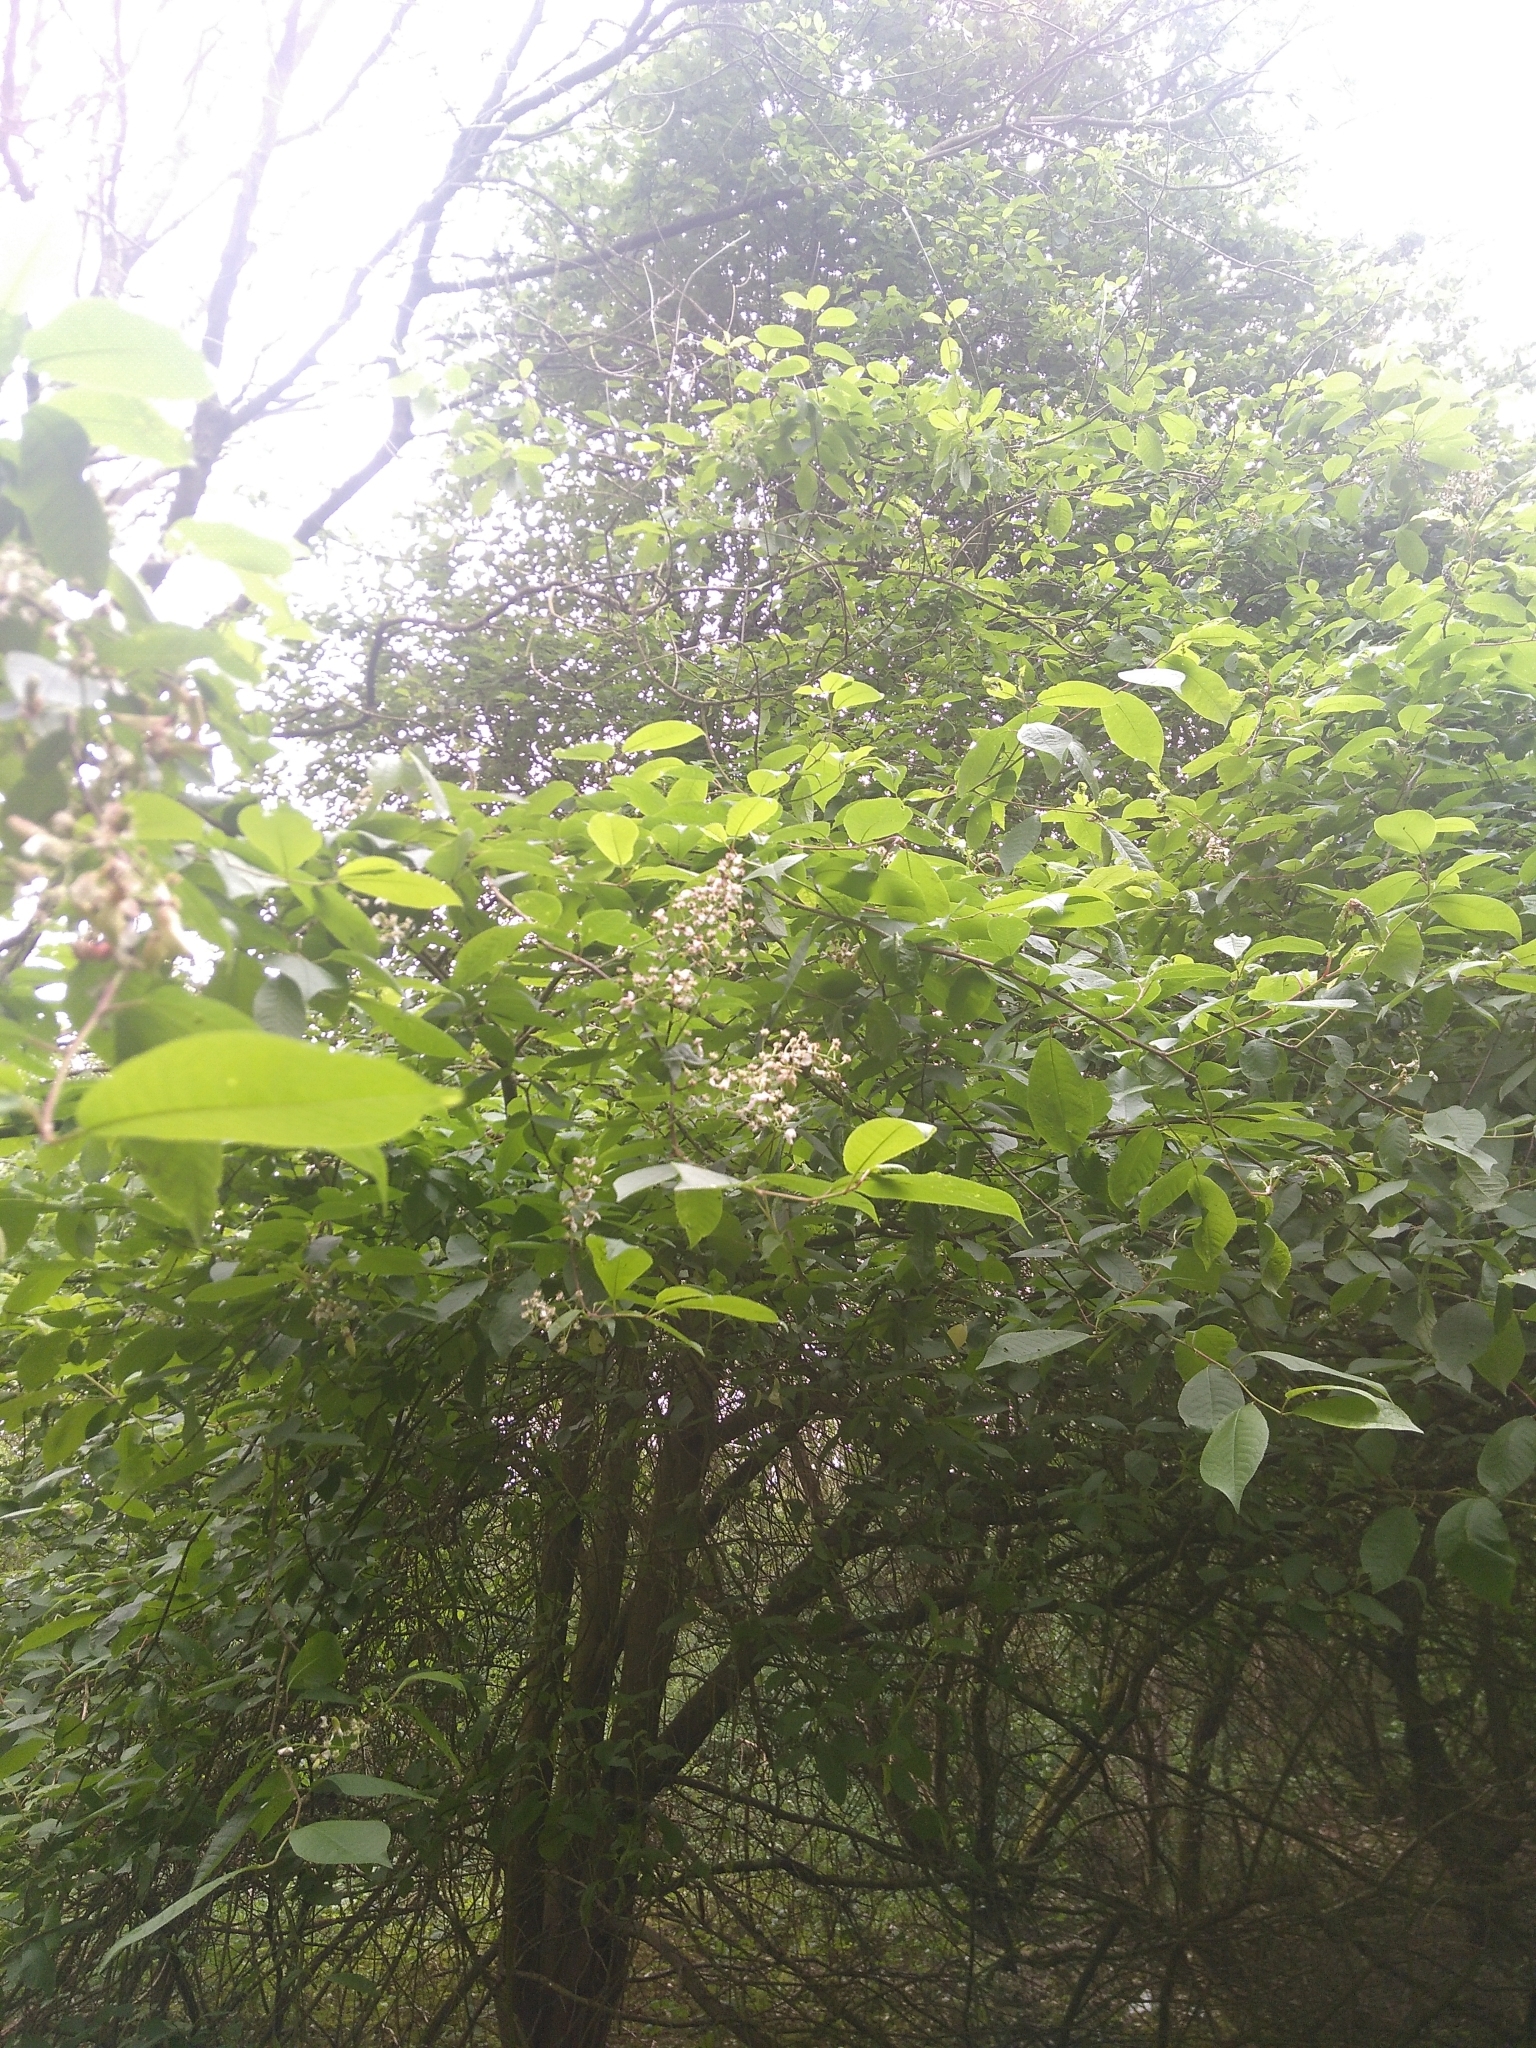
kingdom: Plantae
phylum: Tracheophyta
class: Magnoliopsida
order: Rosales
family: Rosaceae
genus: Prunus
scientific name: Prunus avium
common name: Sweet cherry
